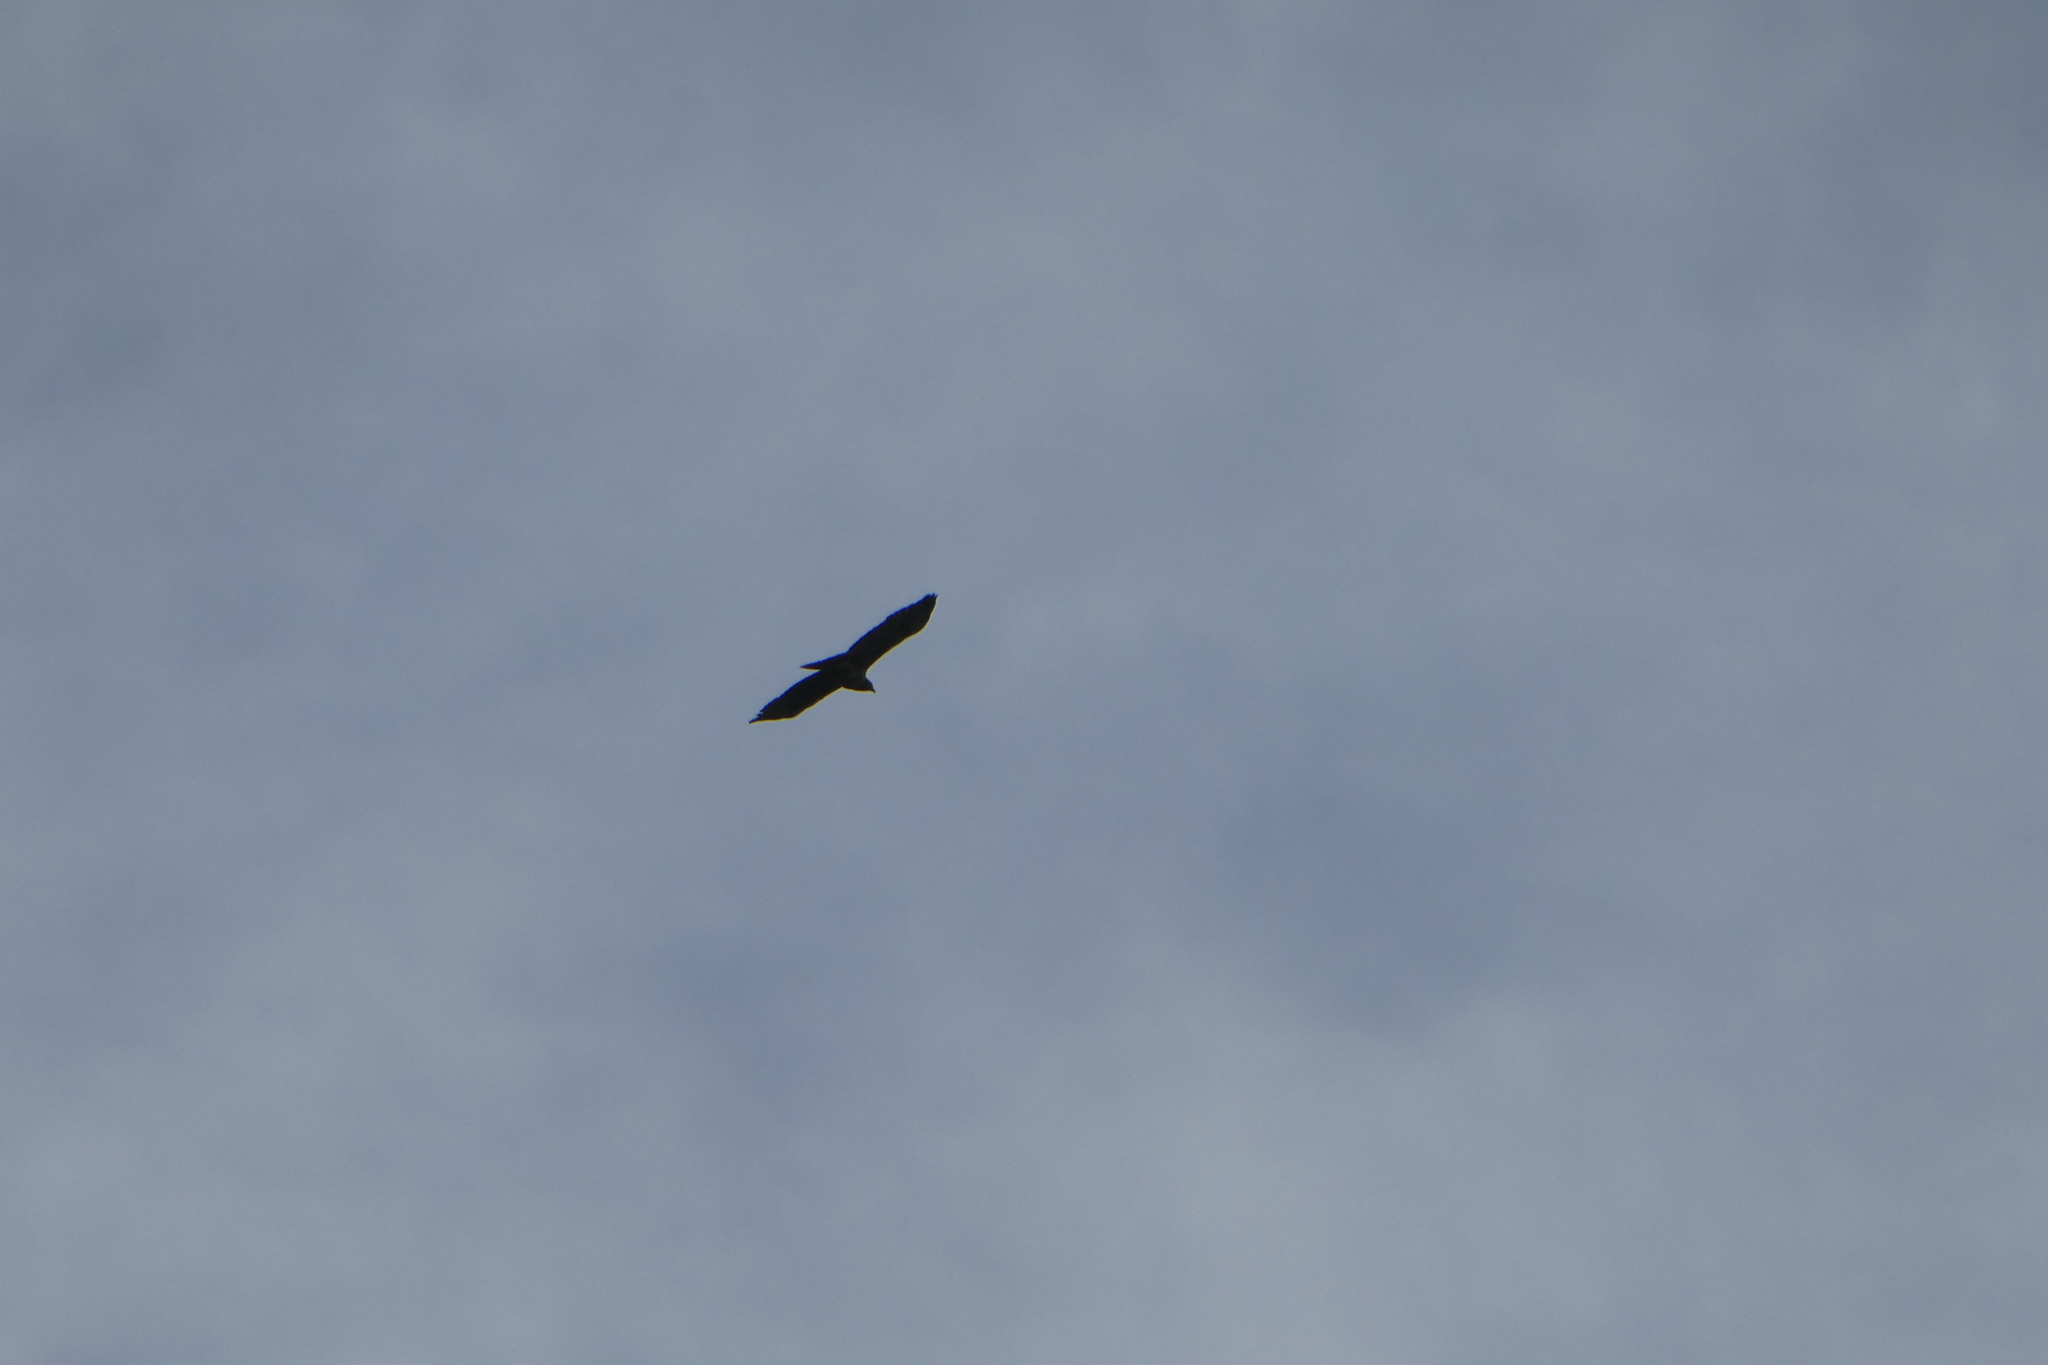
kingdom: Animalia
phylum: Chordata
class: Aves
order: Accipitriformes
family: Accipitridae
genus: Buteo
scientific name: Buteo jamaicensis
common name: Red-tailed hawk
